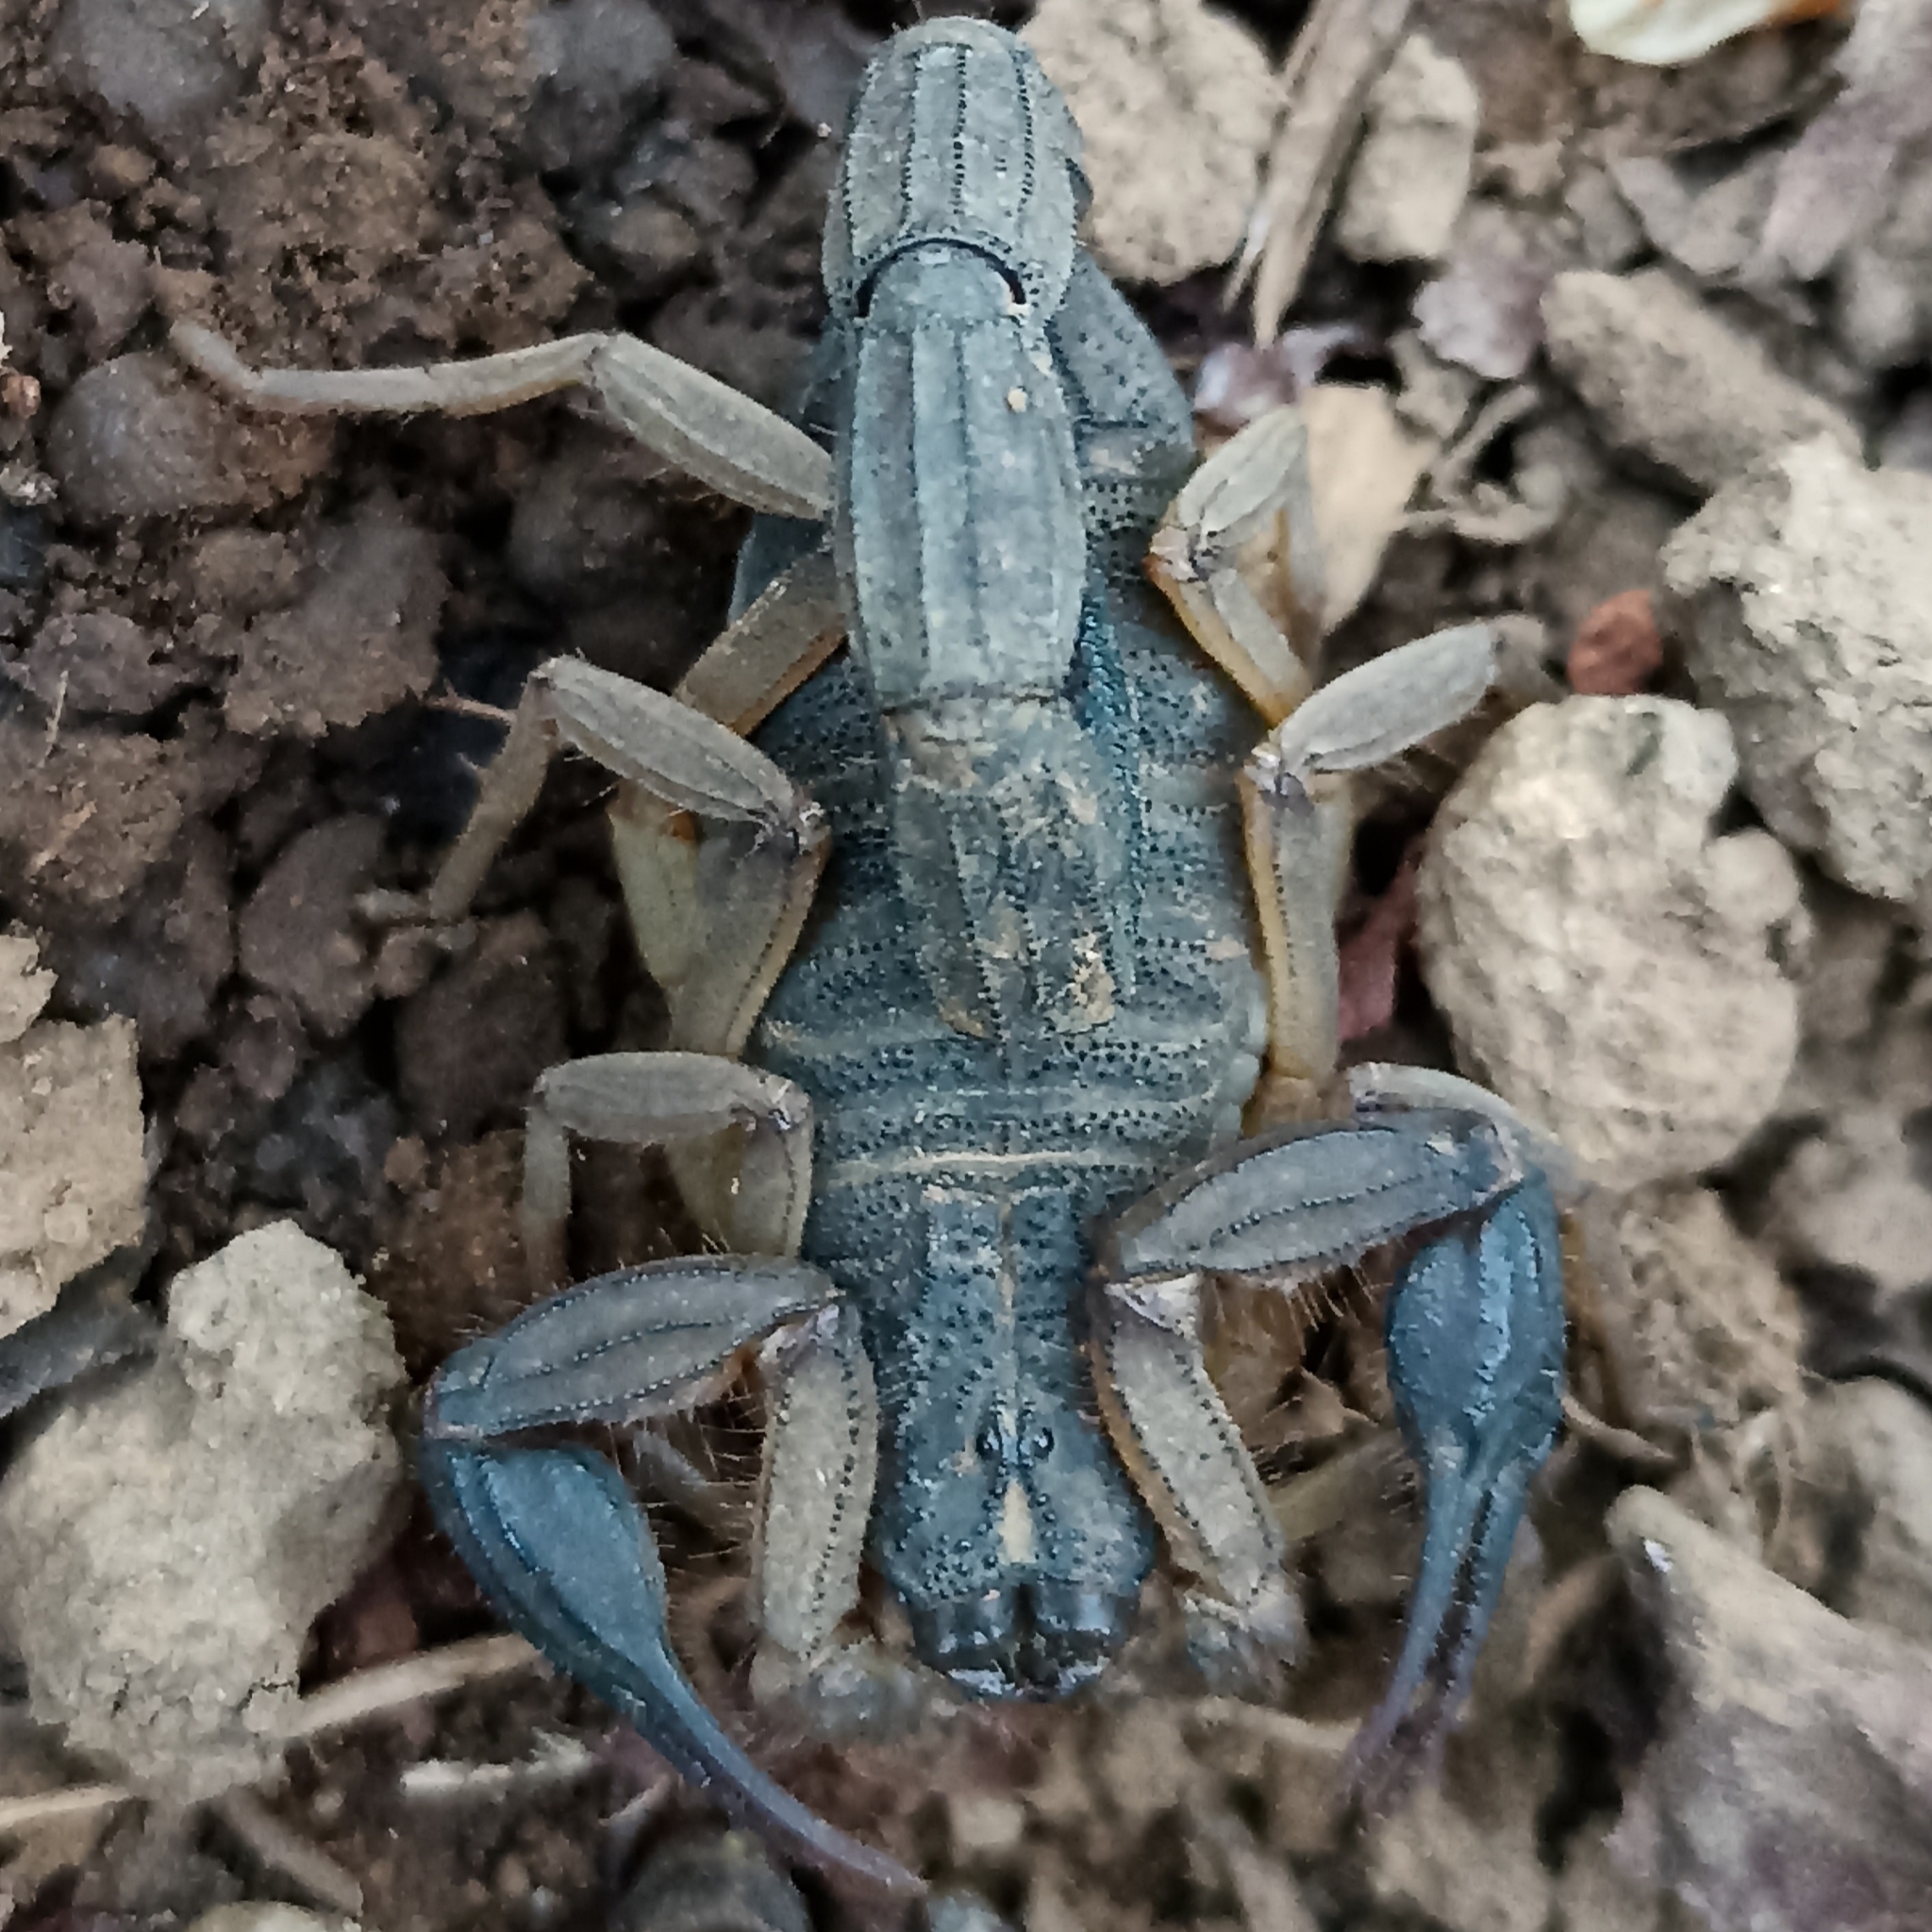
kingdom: Animalia
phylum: Arthropoda
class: Arachnida
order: Scorpiones
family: Buthidae
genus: Centruroides
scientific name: Centruroides edwardsii
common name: Scorpions
